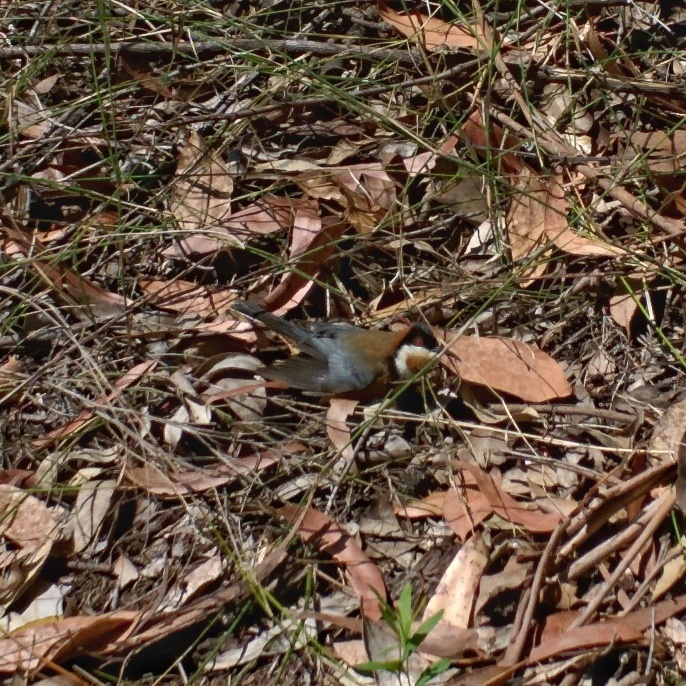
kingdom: Animalia
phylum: Chordata
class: Aves
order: Passeriformes
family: Meliphagidae
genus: Acanthorhynchus
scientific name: Acanthorhynchus tenuirostris
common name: Eastern spinebill
